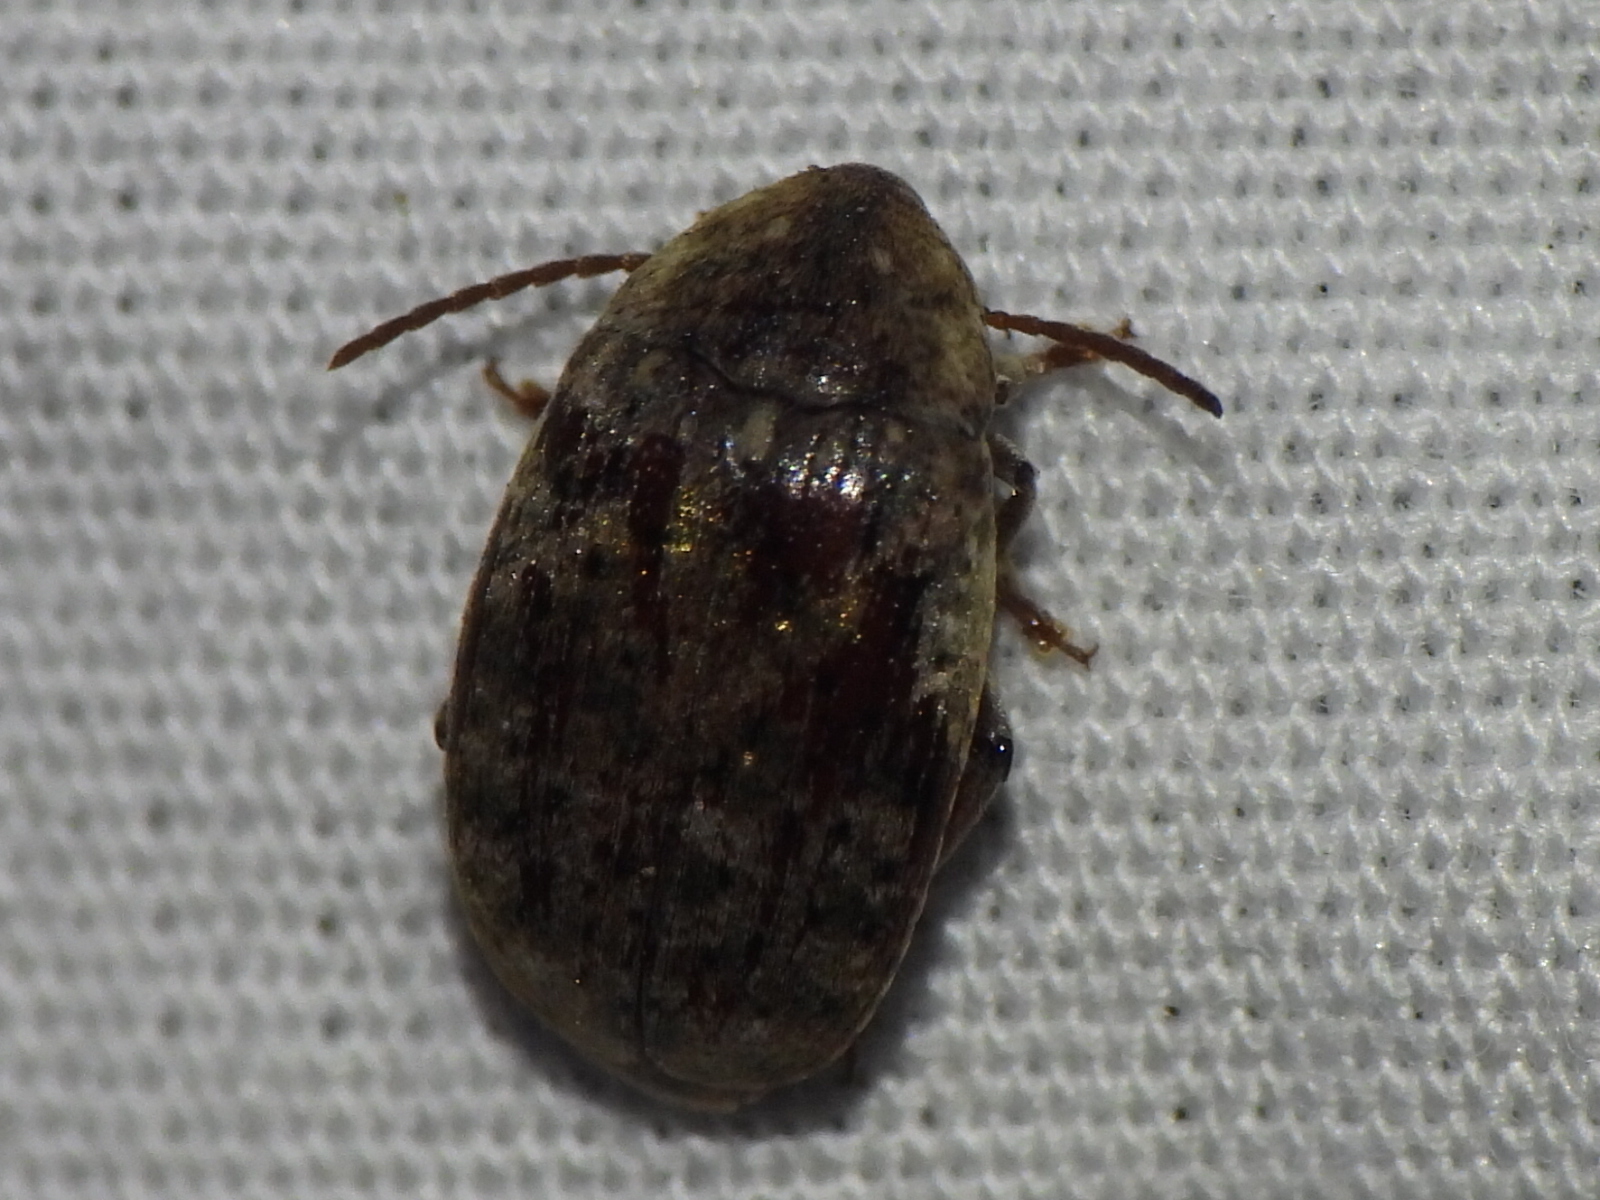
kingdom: Animalia
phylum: Arthropoda
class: Insecta
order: Coleoptera
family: Chrysomelidae
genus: Amblycerus
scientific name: Amblycerus robiniae
